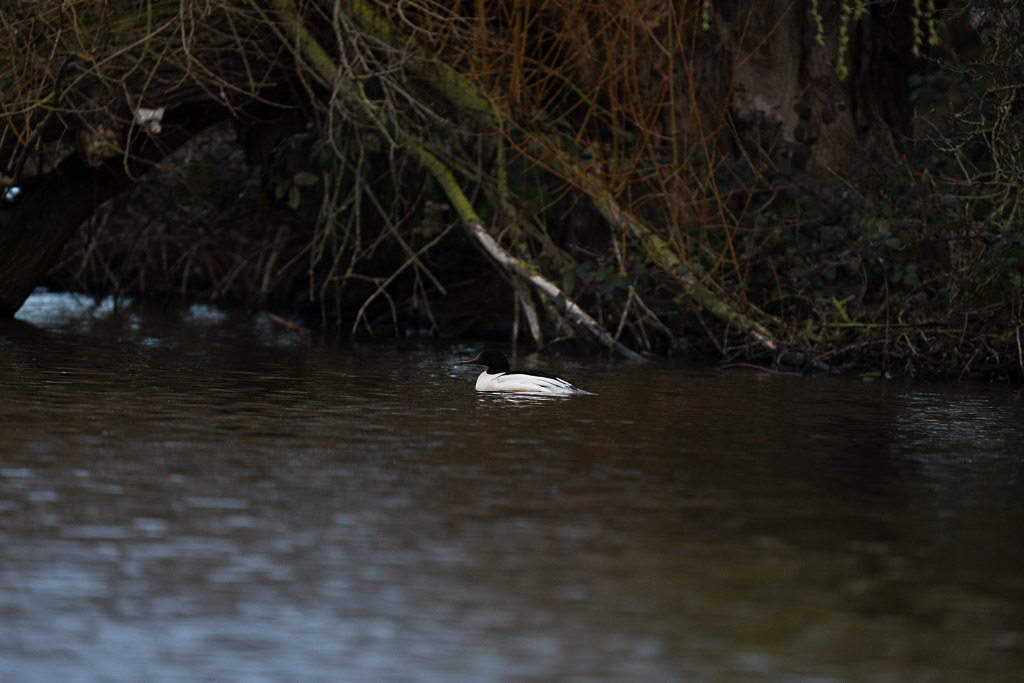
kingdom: Animalia
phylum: Chordata
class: Aves
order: Anseriformes
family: Anatidae
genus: Mergus
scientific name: Mergus merganser
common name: Common merganser
